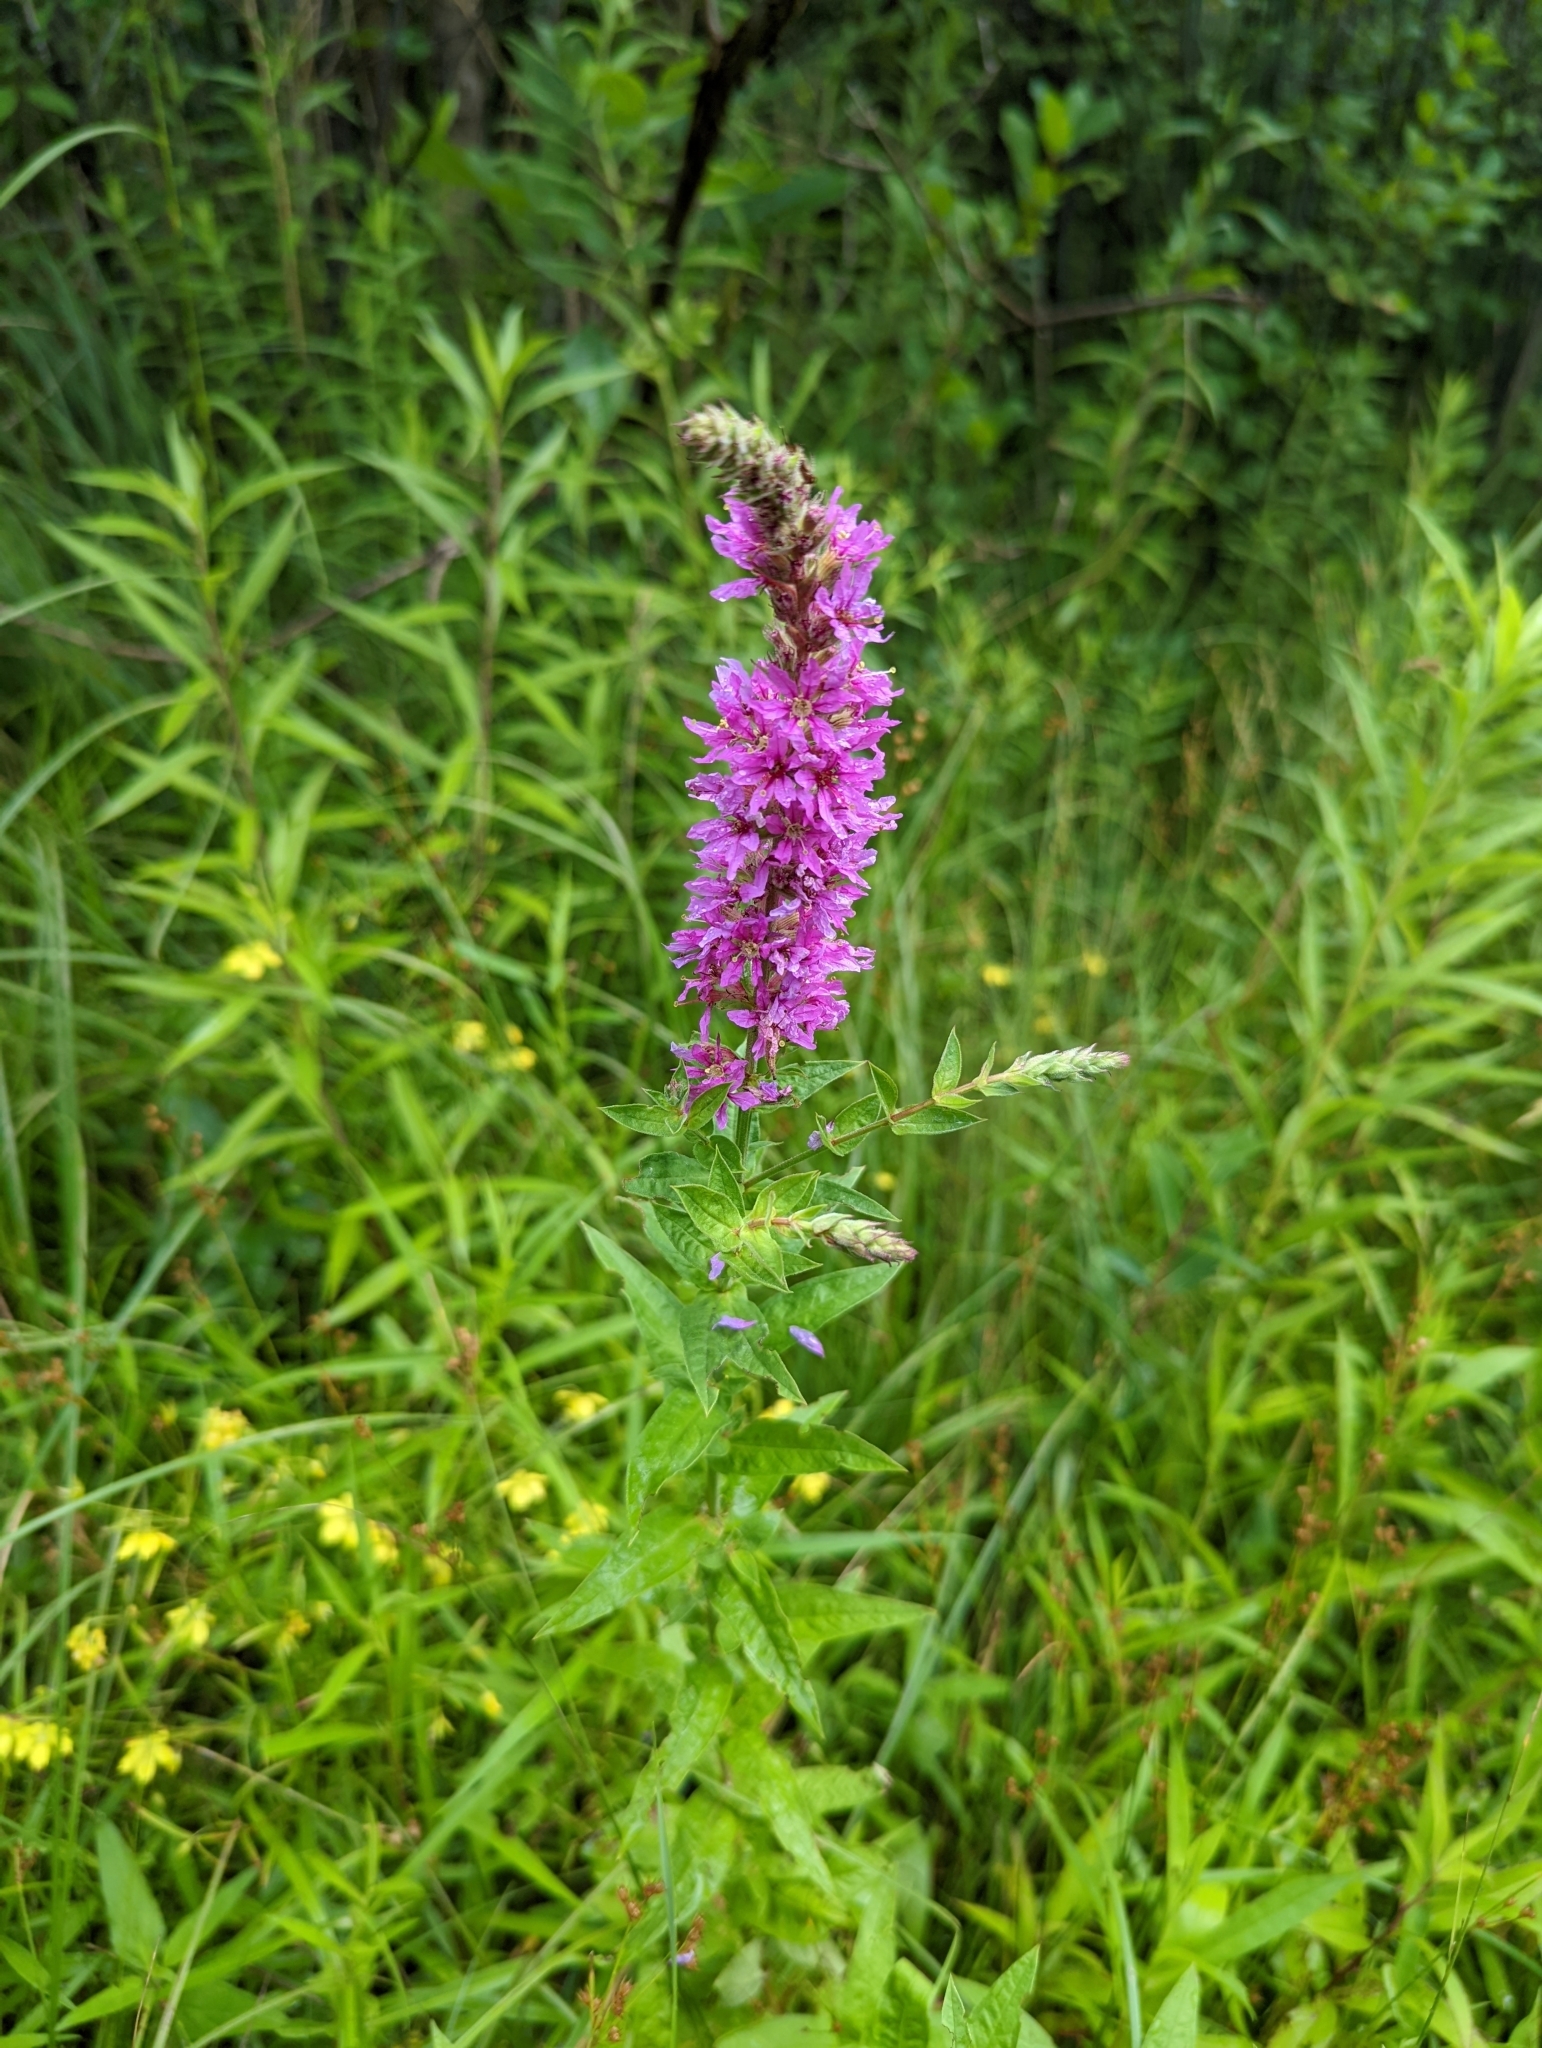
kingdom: Plantae
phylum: Tracheophyta
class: Magnoliopsida
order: Myrtales
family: Lythraceae
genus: Lythrum
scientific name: Lythrum salicaria
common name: Purple loosestrife
